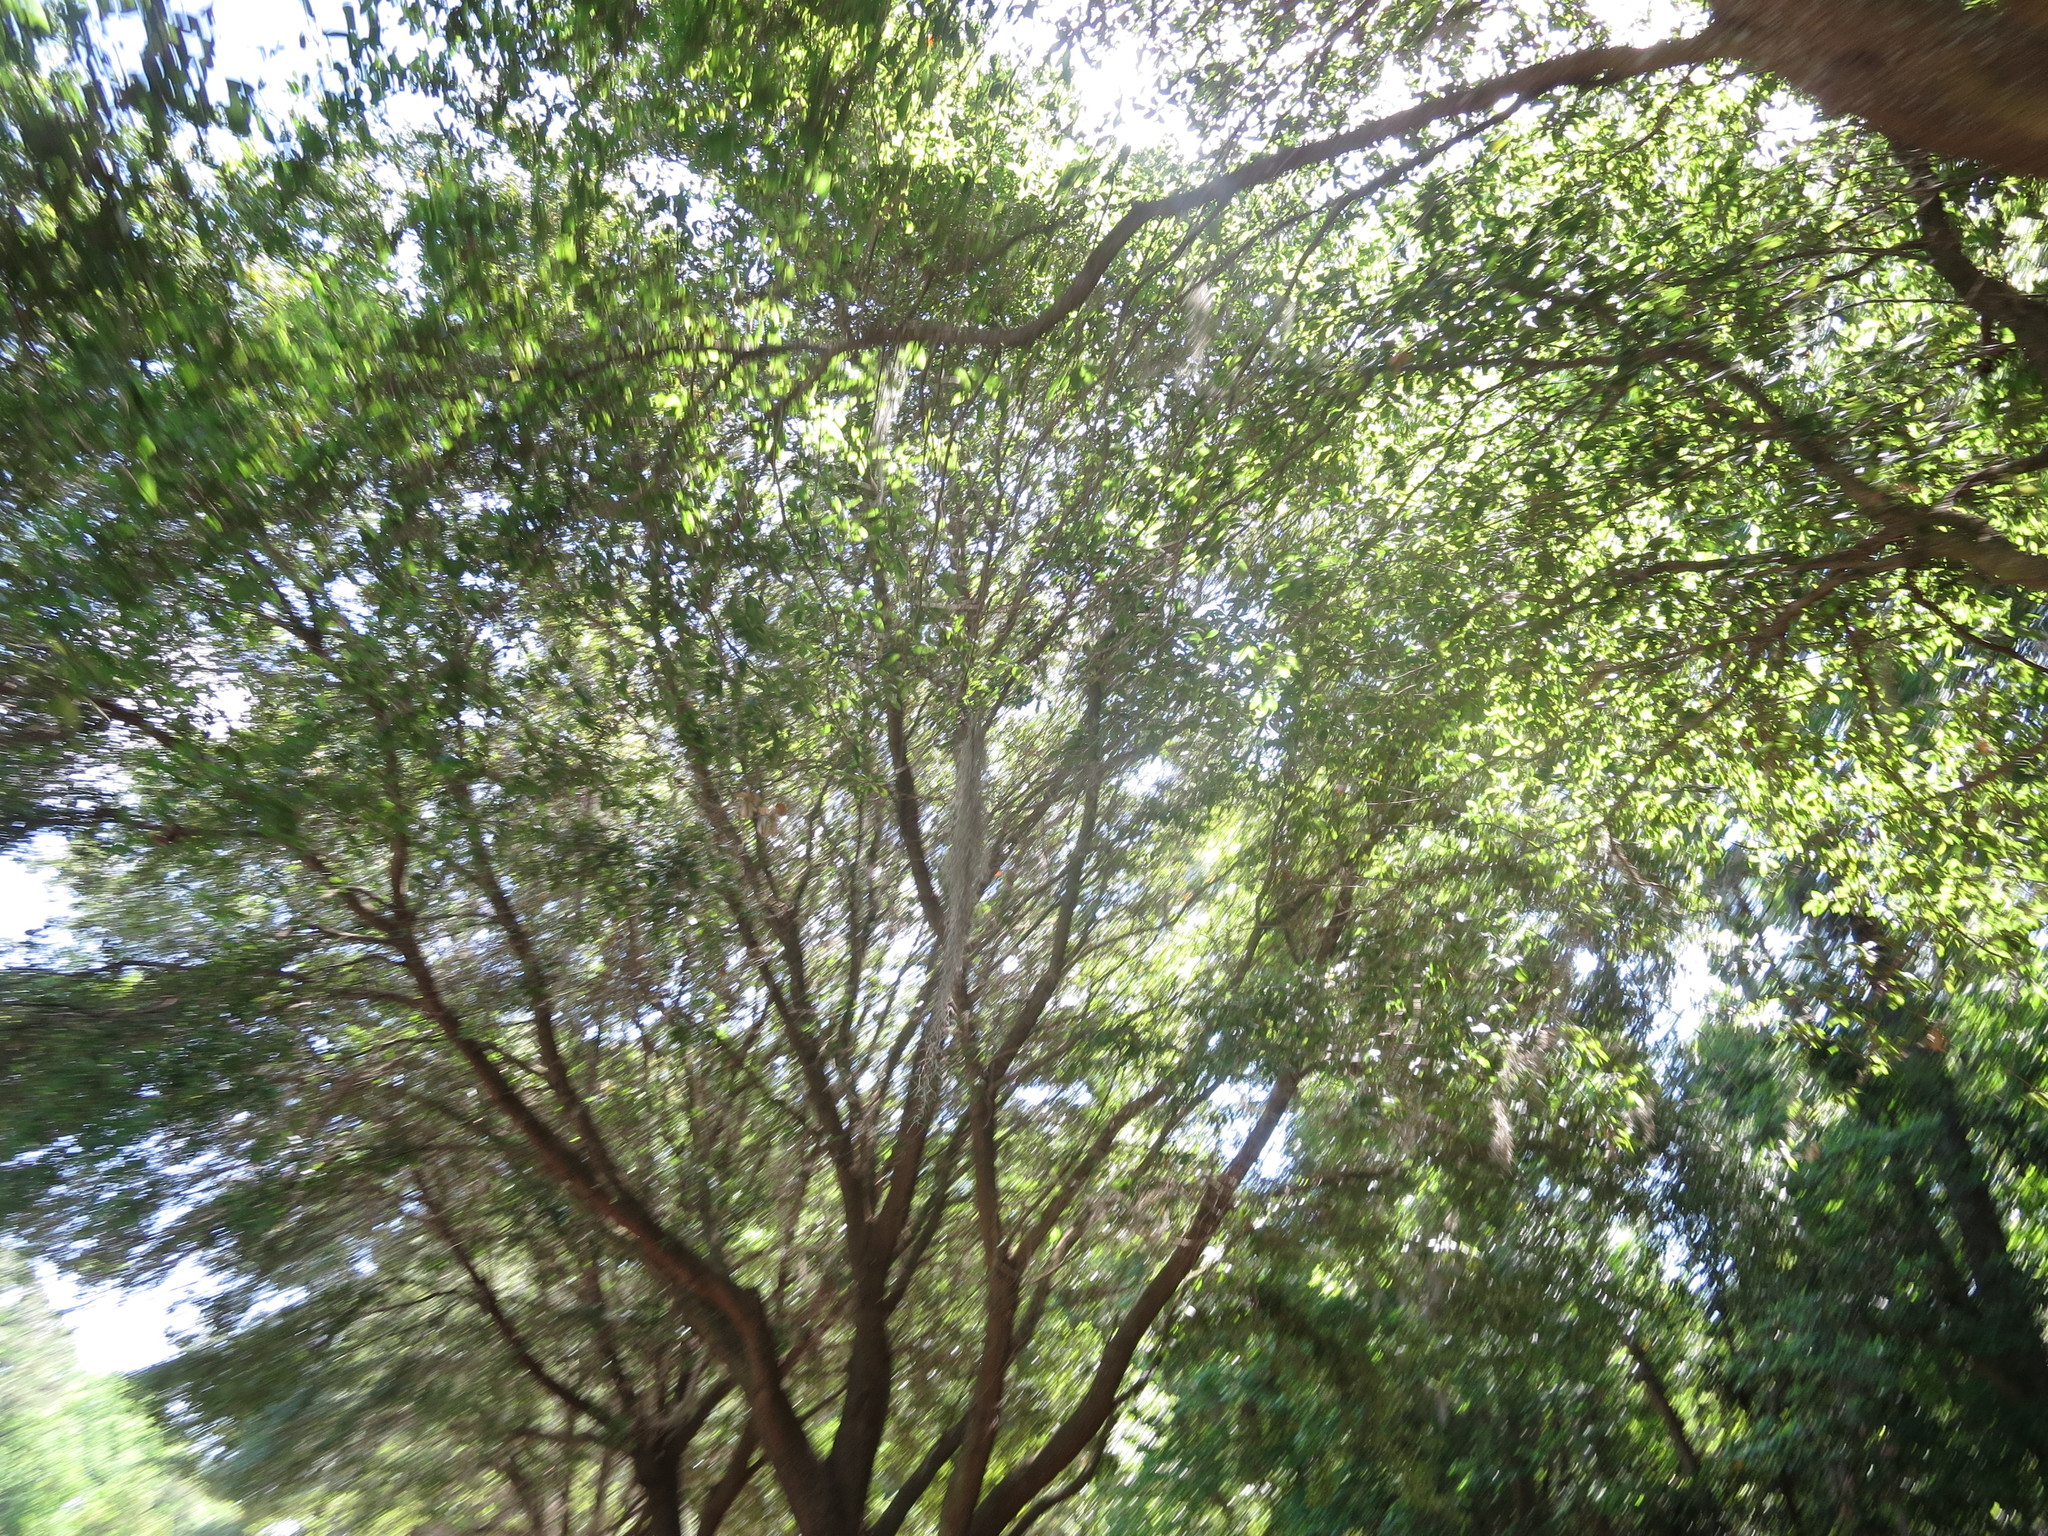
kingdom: Plantae
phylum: Tracheophyta
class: Liliopsida
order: Poales
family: Bromeliaceae
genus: Tillandsia
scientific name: Tillandsia usneoides
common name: Spanish moss
